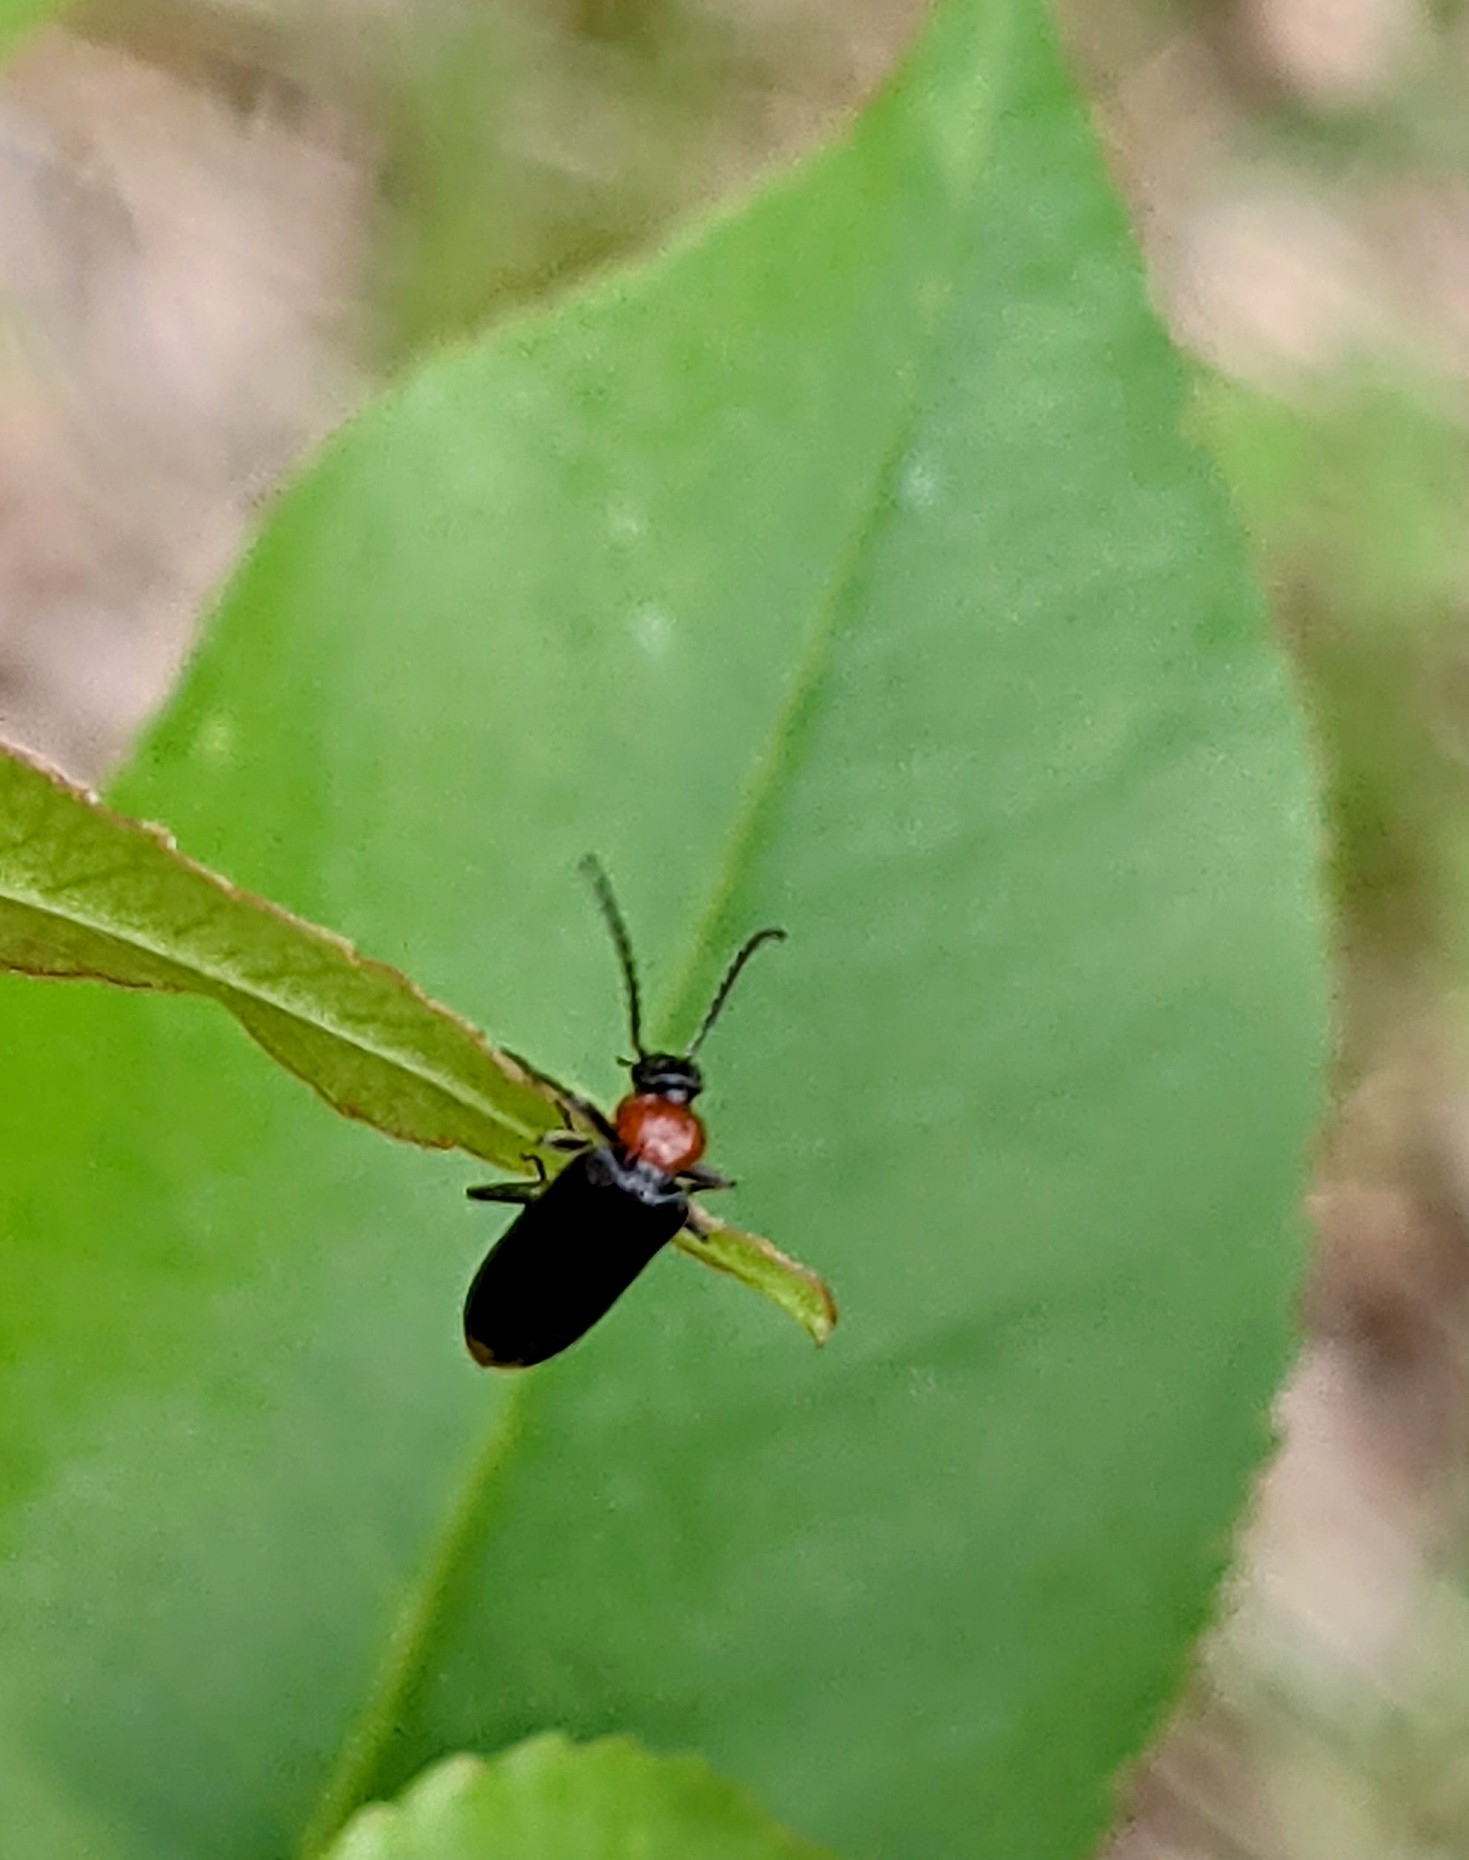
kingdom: Animalia
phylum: Arthropoda
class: Insecta
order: Coleoptera
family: Pyrochroidae
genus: Pedilus
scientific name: Pedilus terminalis
